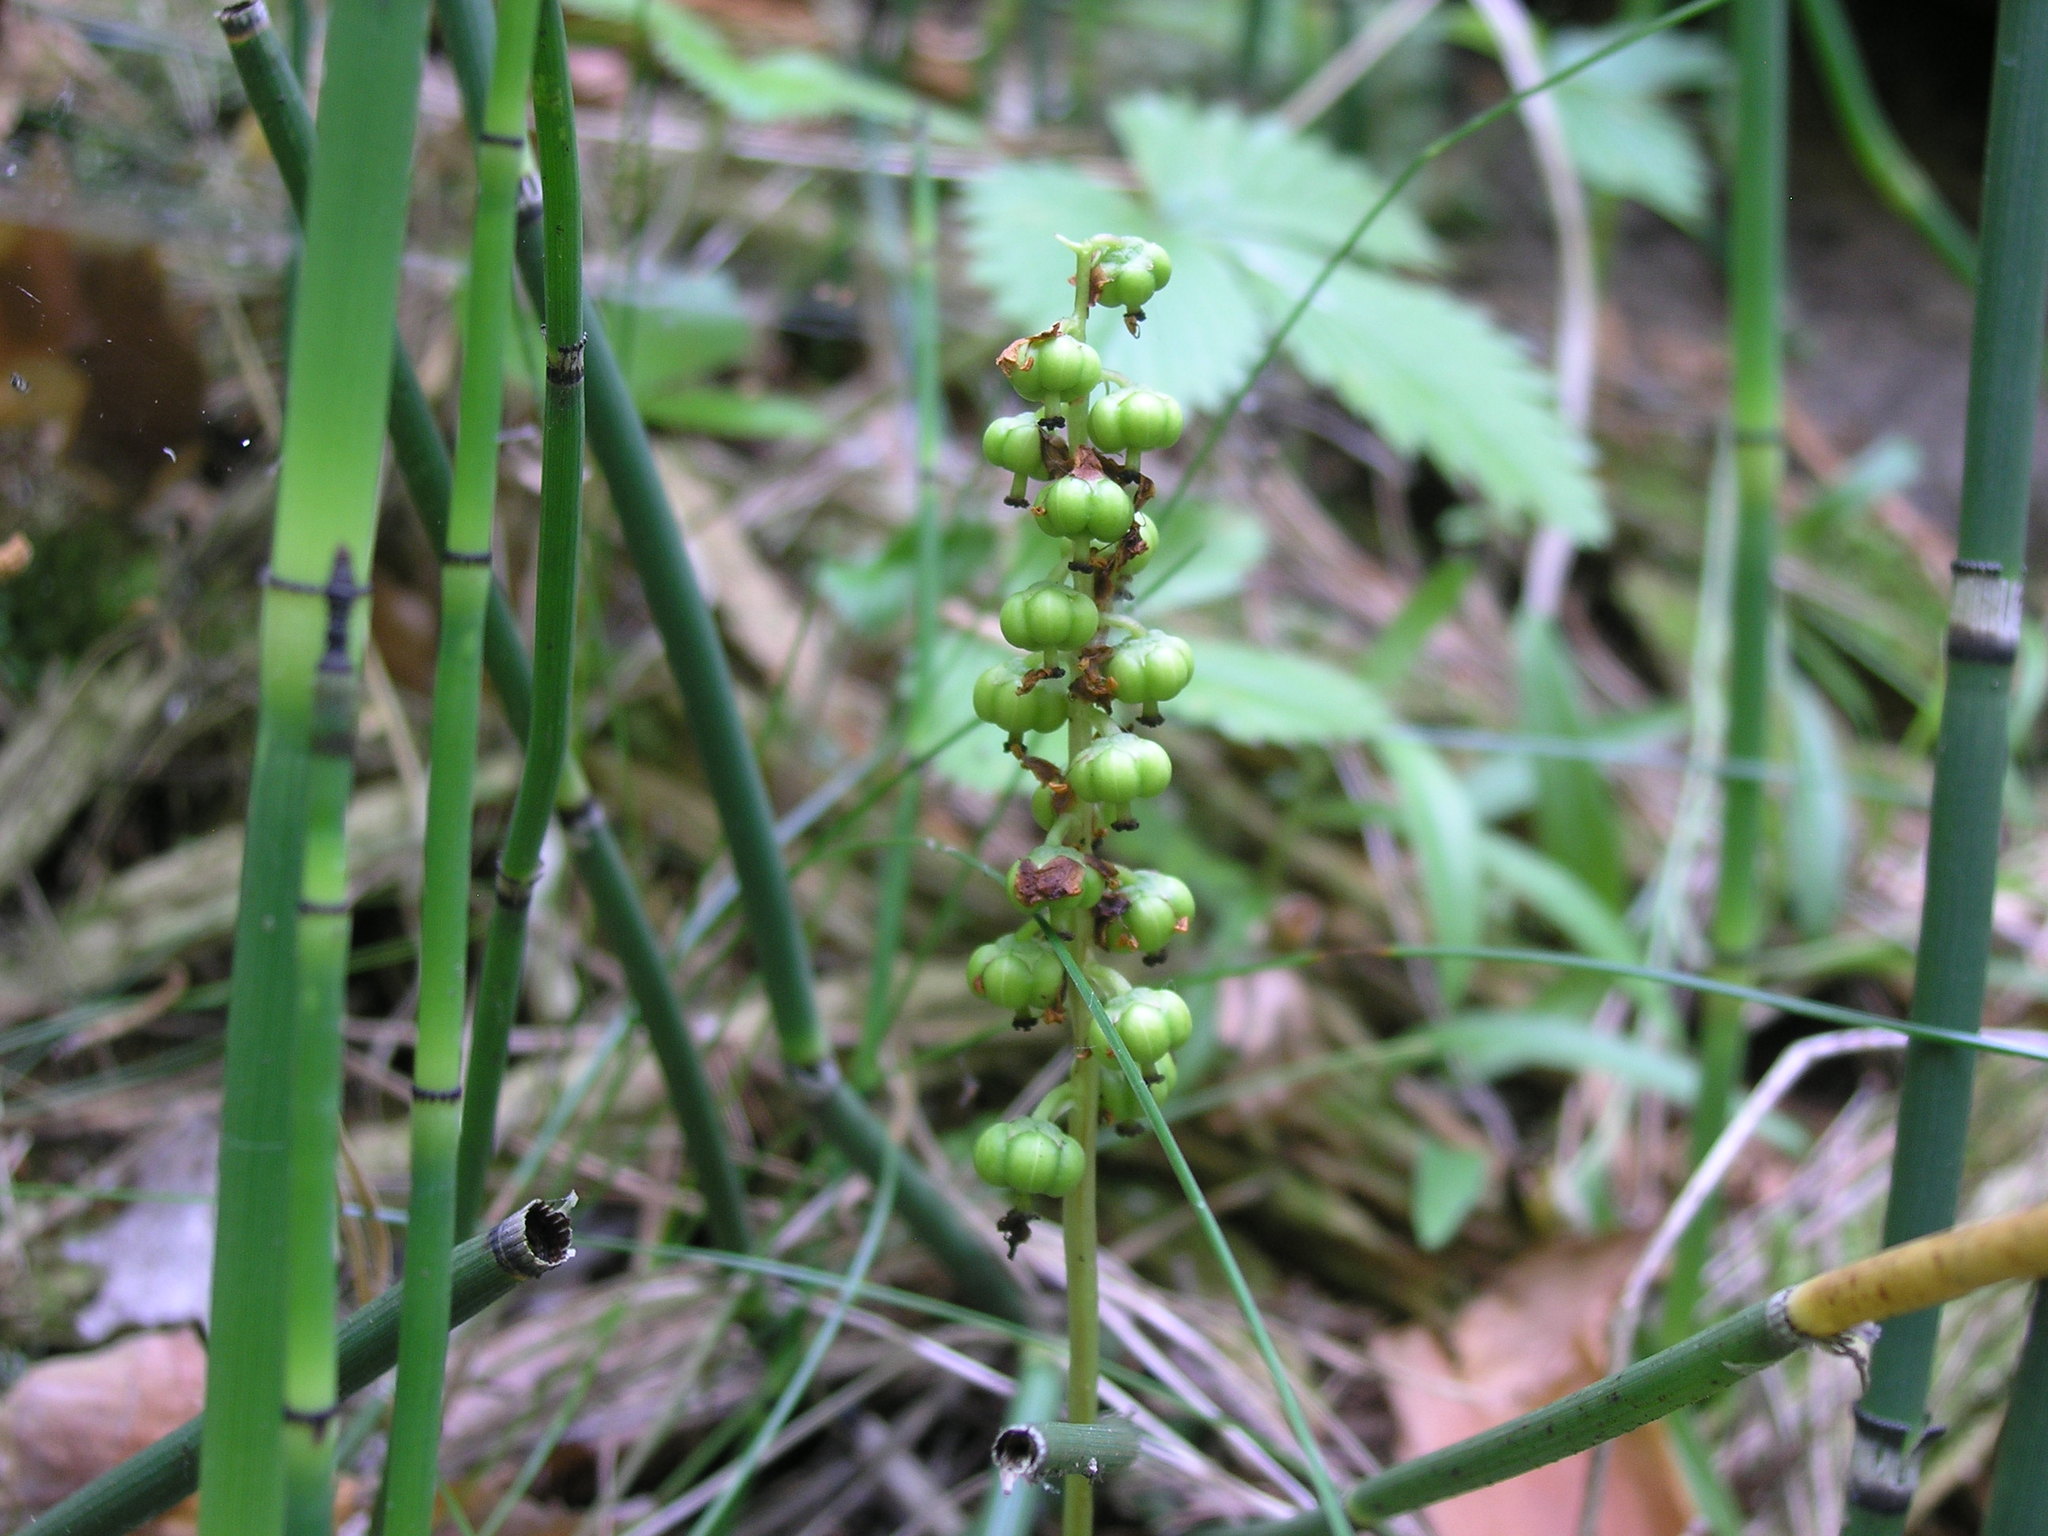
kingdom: Plantae
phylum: Tracheophyta
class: Magnoliopsida
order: Ericales
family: Ericaceae
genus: Pyrola
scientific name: Pyrola minor
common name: Common wintergreen
